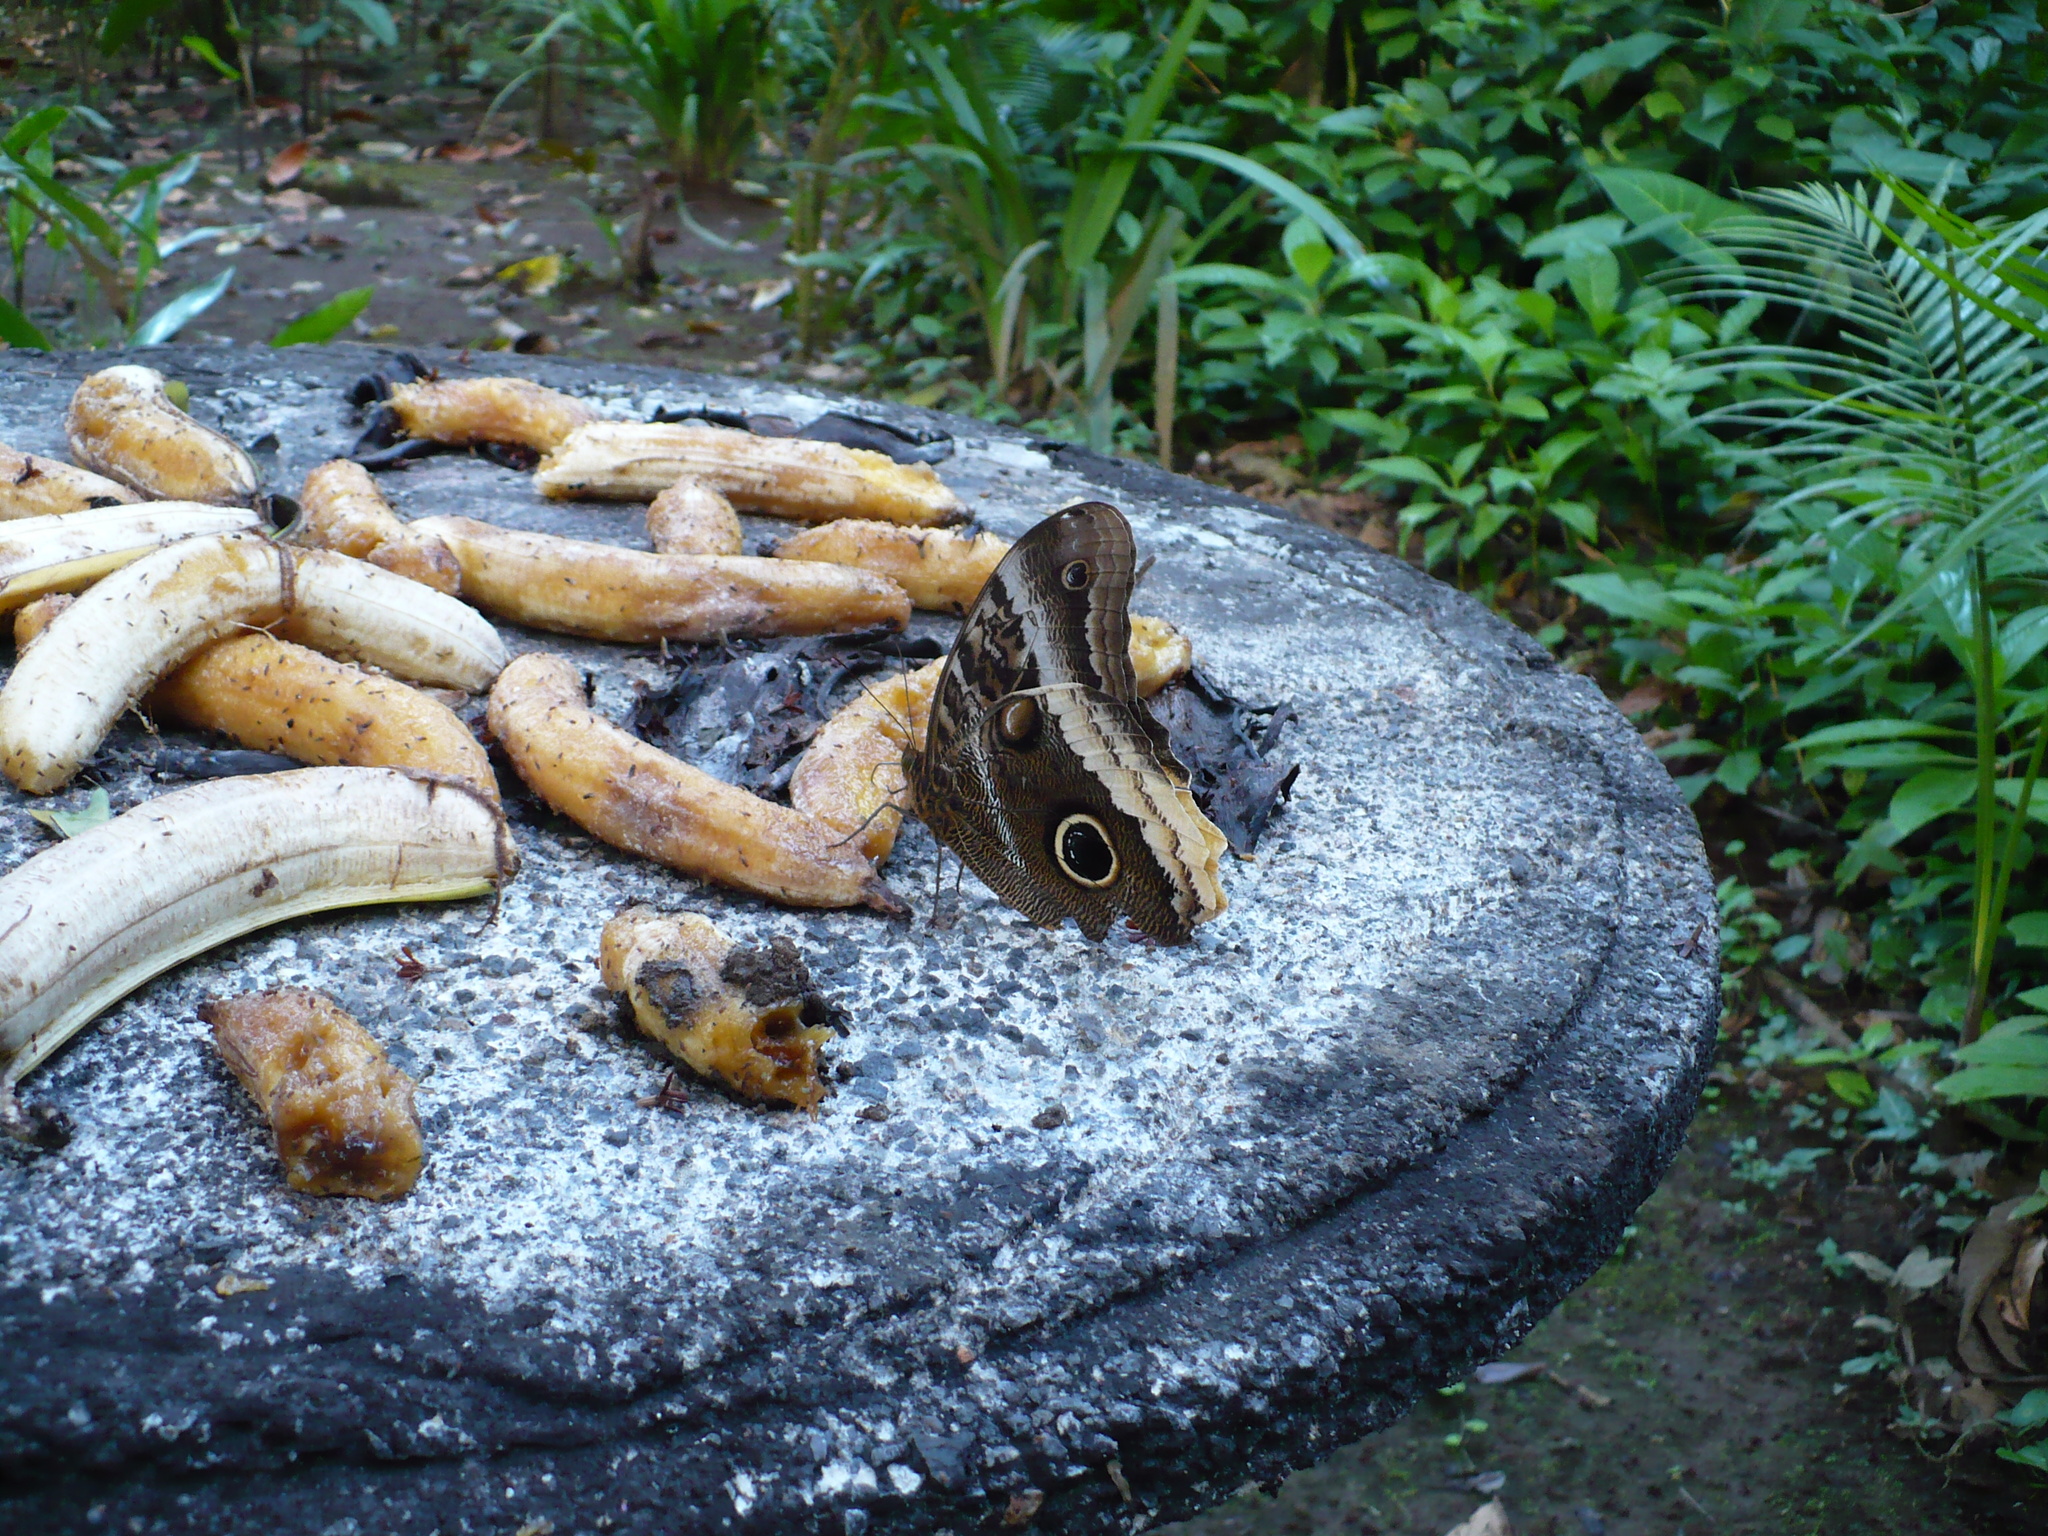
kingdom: Animalia
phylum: Arthropoda
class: Insecta
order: Lepidoptera
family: Nymphalidae
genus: Caligo
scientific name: Caligo atreus
